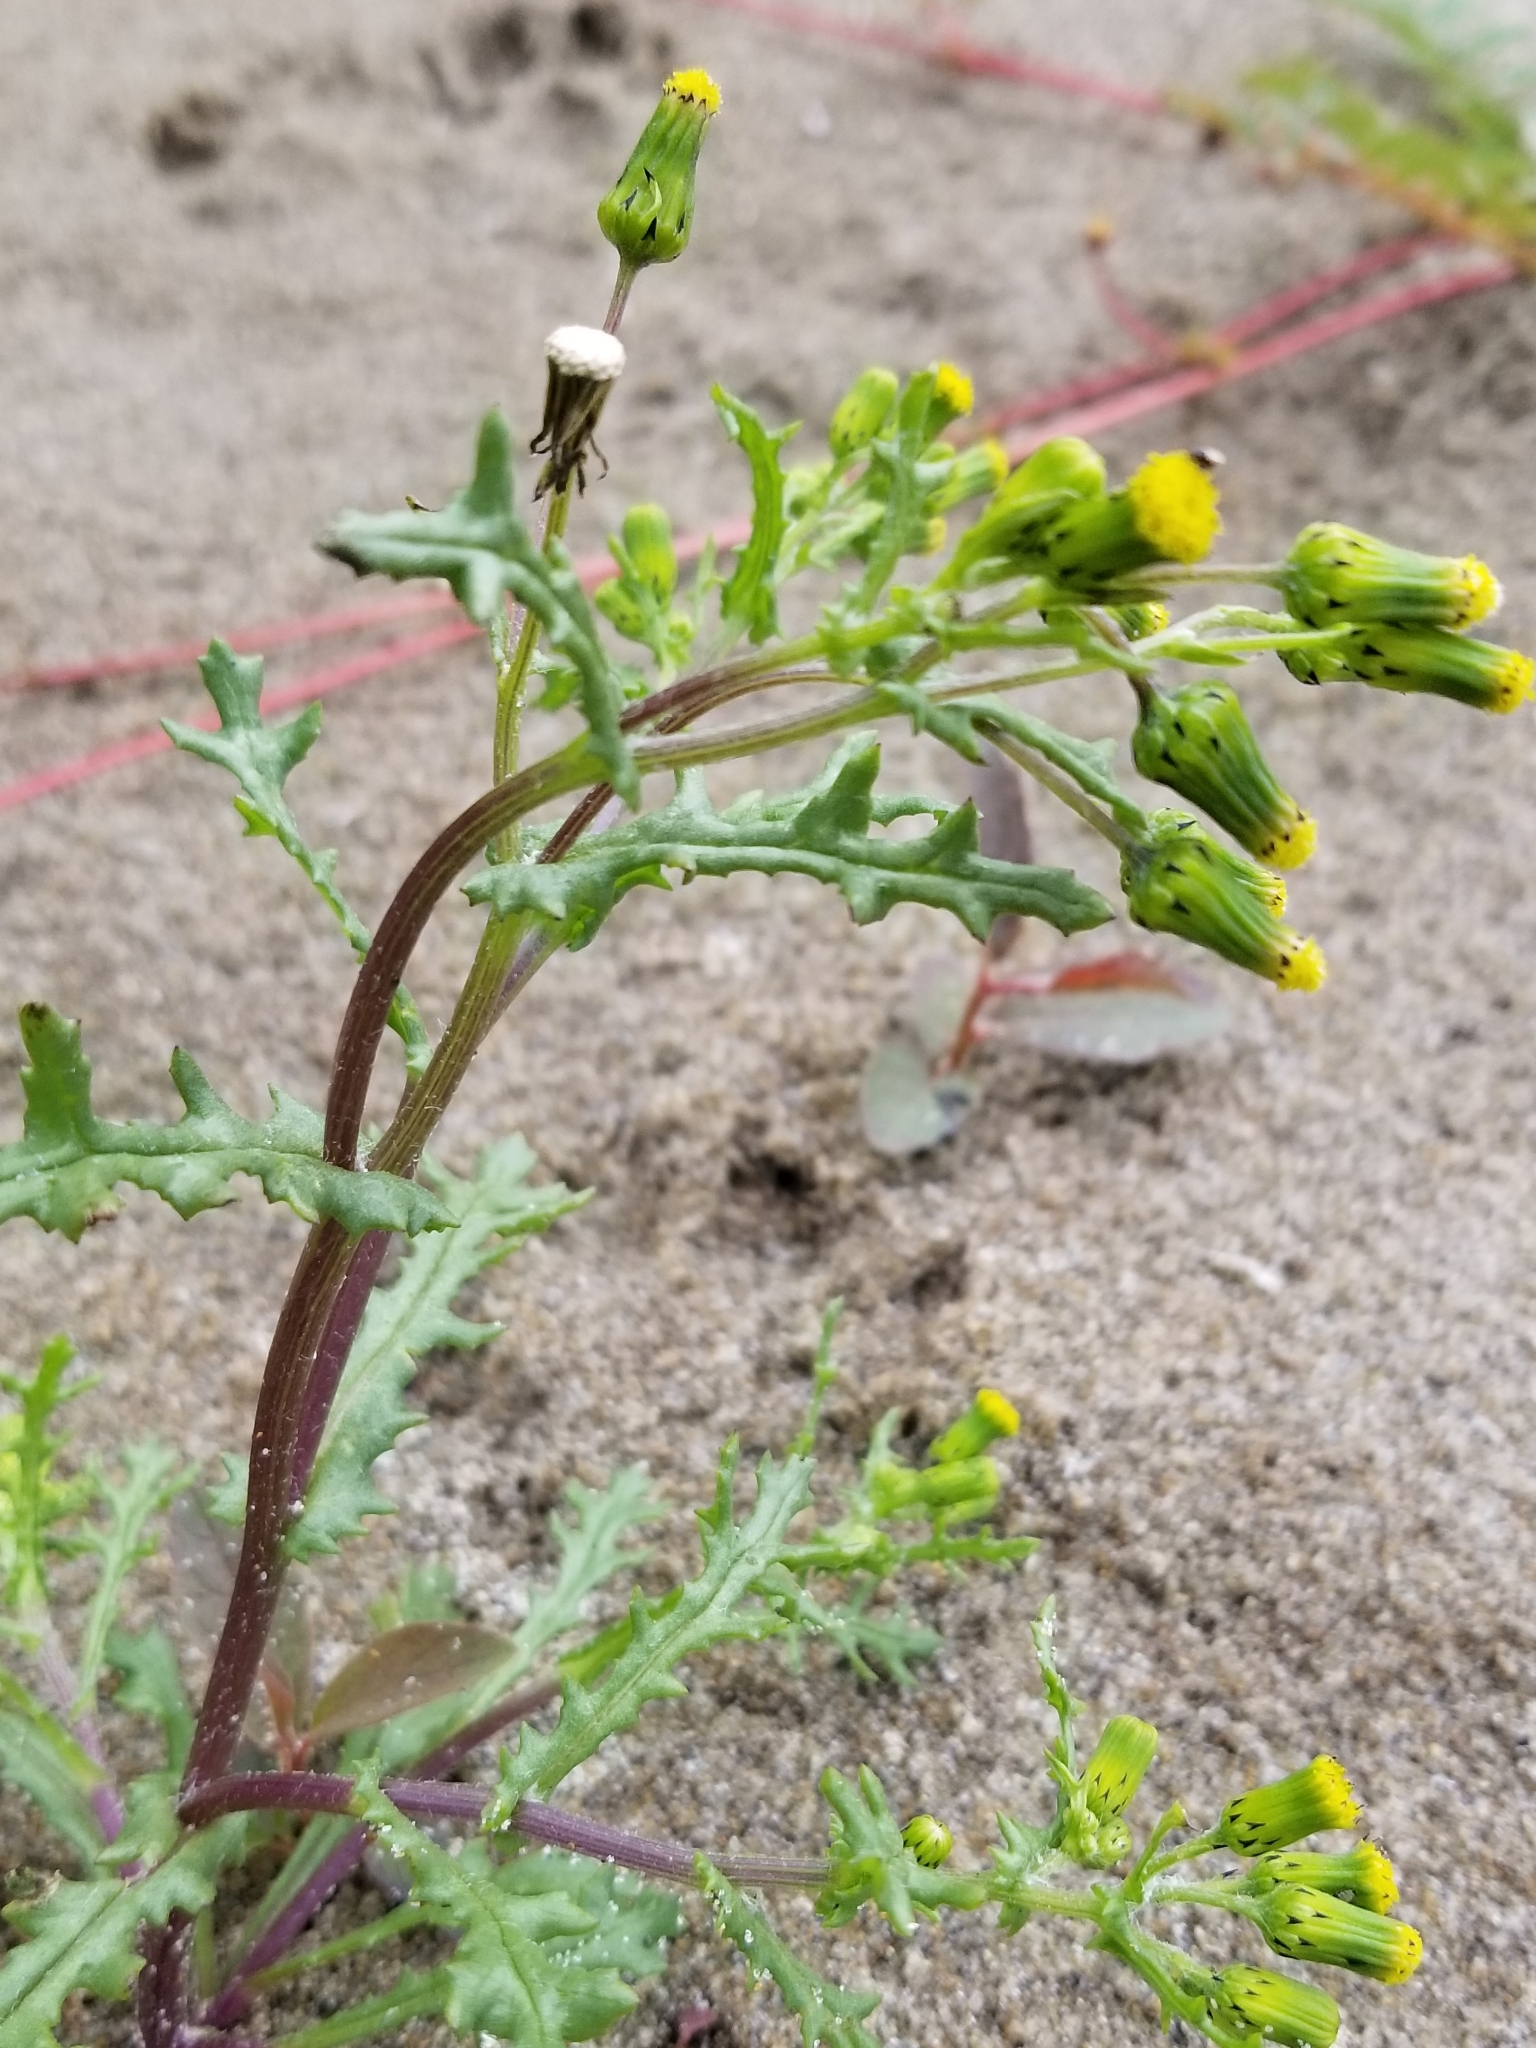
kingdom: Plantae
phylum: Tracheophyta
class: Magnoliopsida
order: Asterales
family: Asteraceae
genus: Senecio
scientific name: Senecio vulgaris
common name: Old-man-in-the-spring
